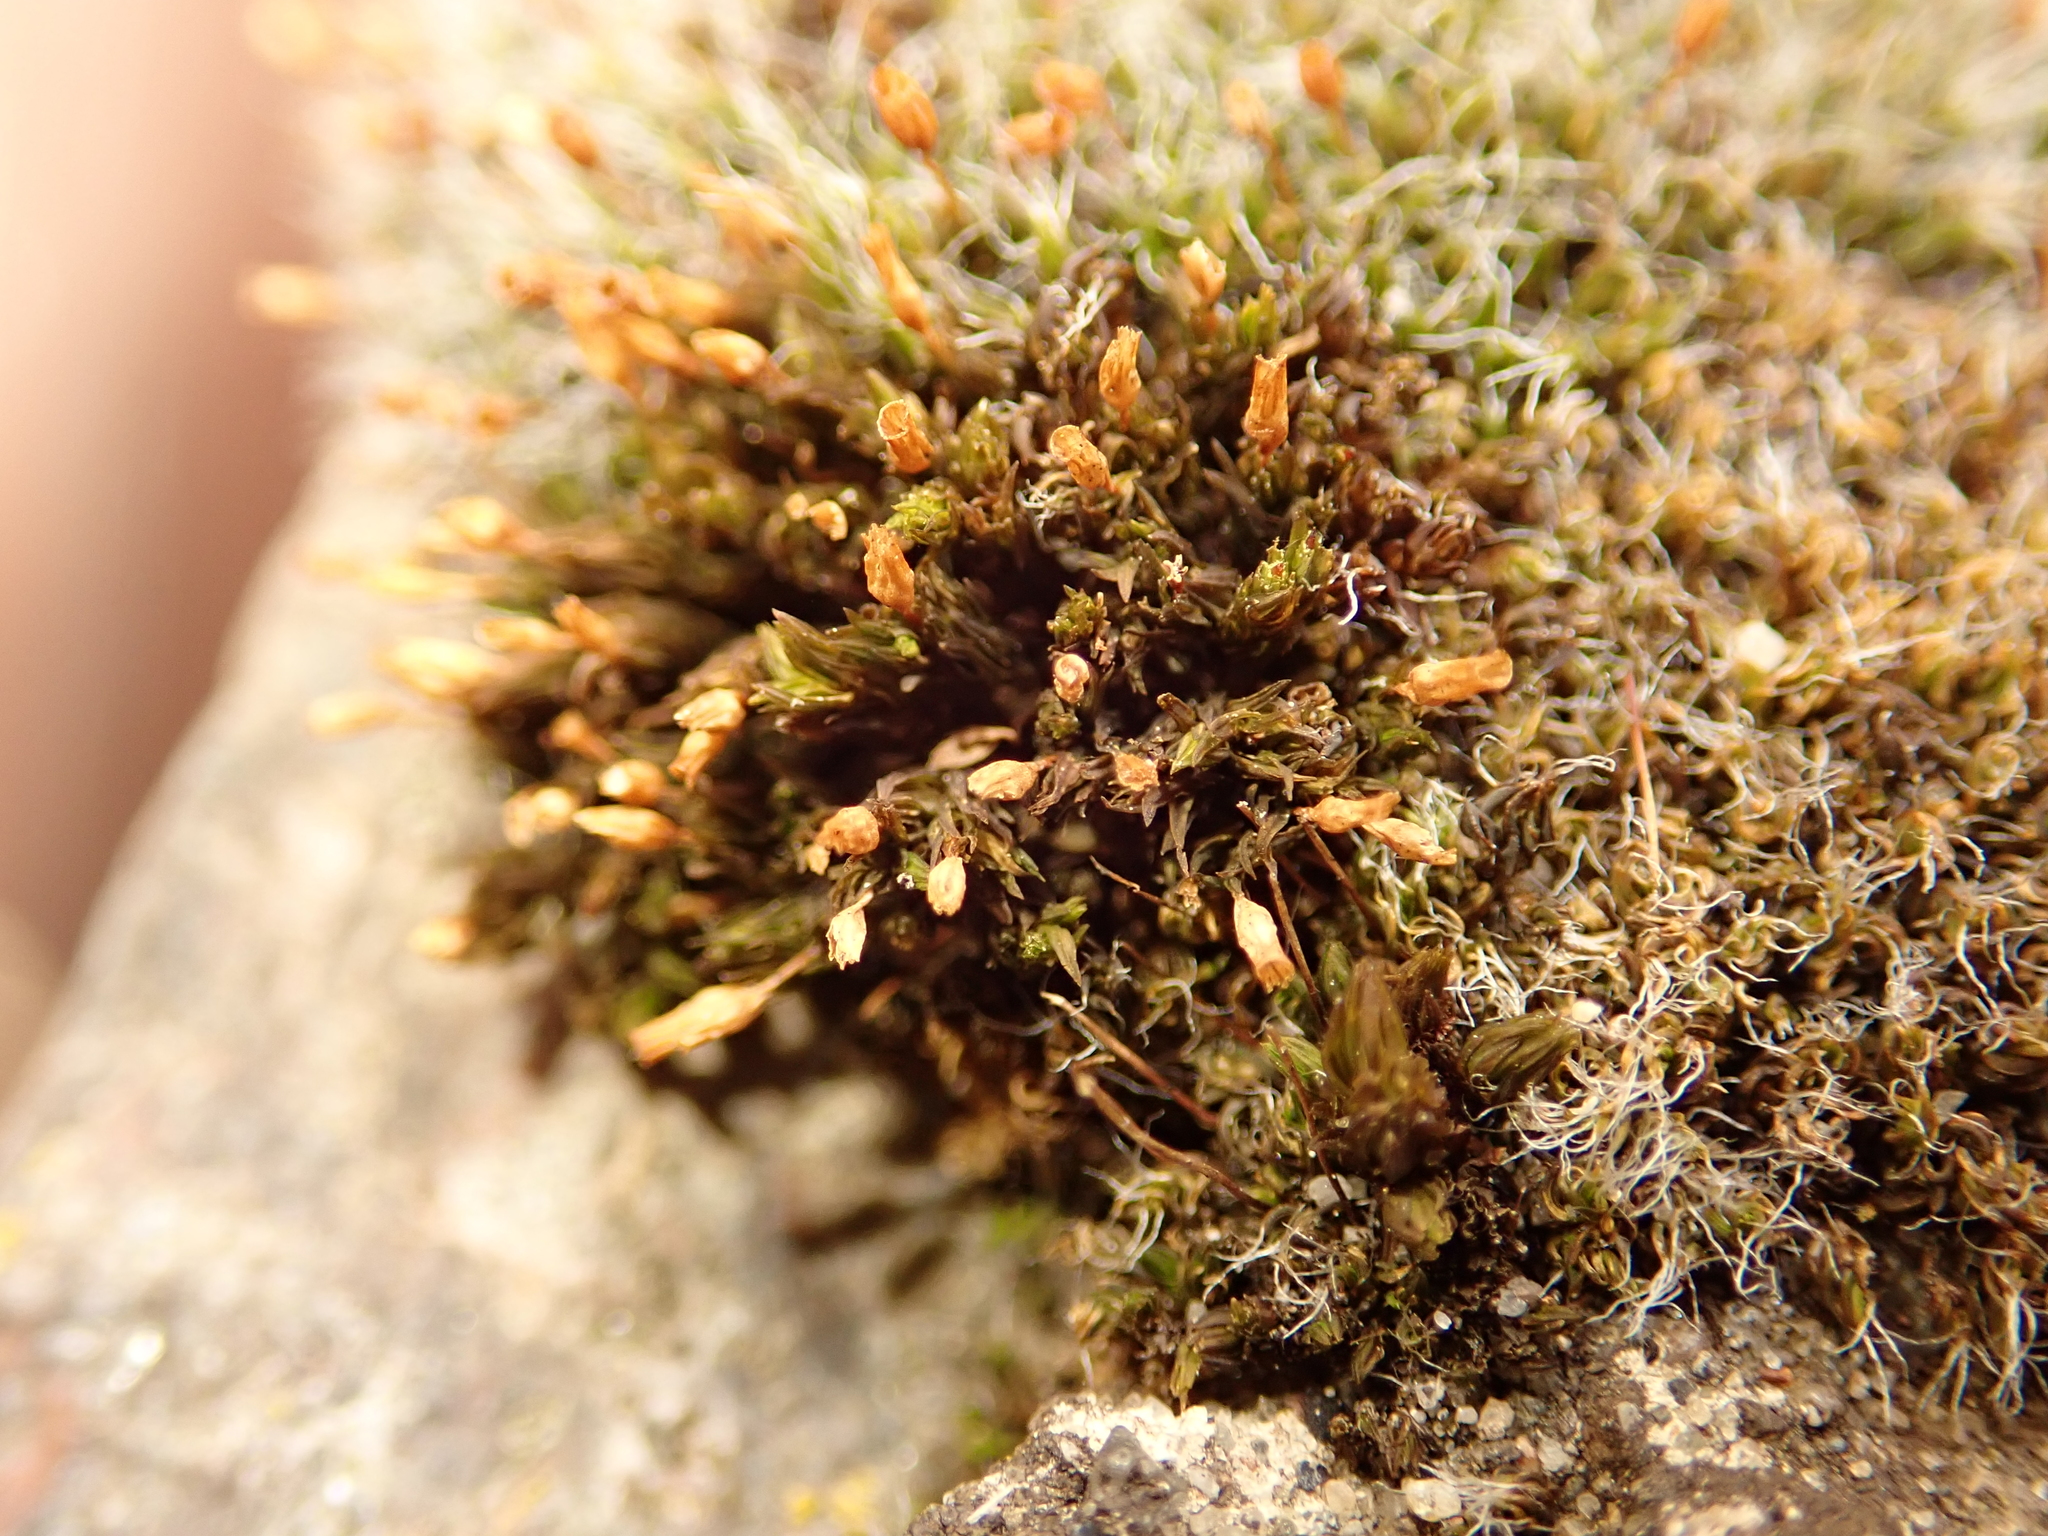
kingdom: Plantae
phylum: Bryophyta
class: Bryopsida
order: Orthotrichales
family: Orthotrichaceae
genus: Orthotrichum
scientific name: Orthotrichum anomalum
